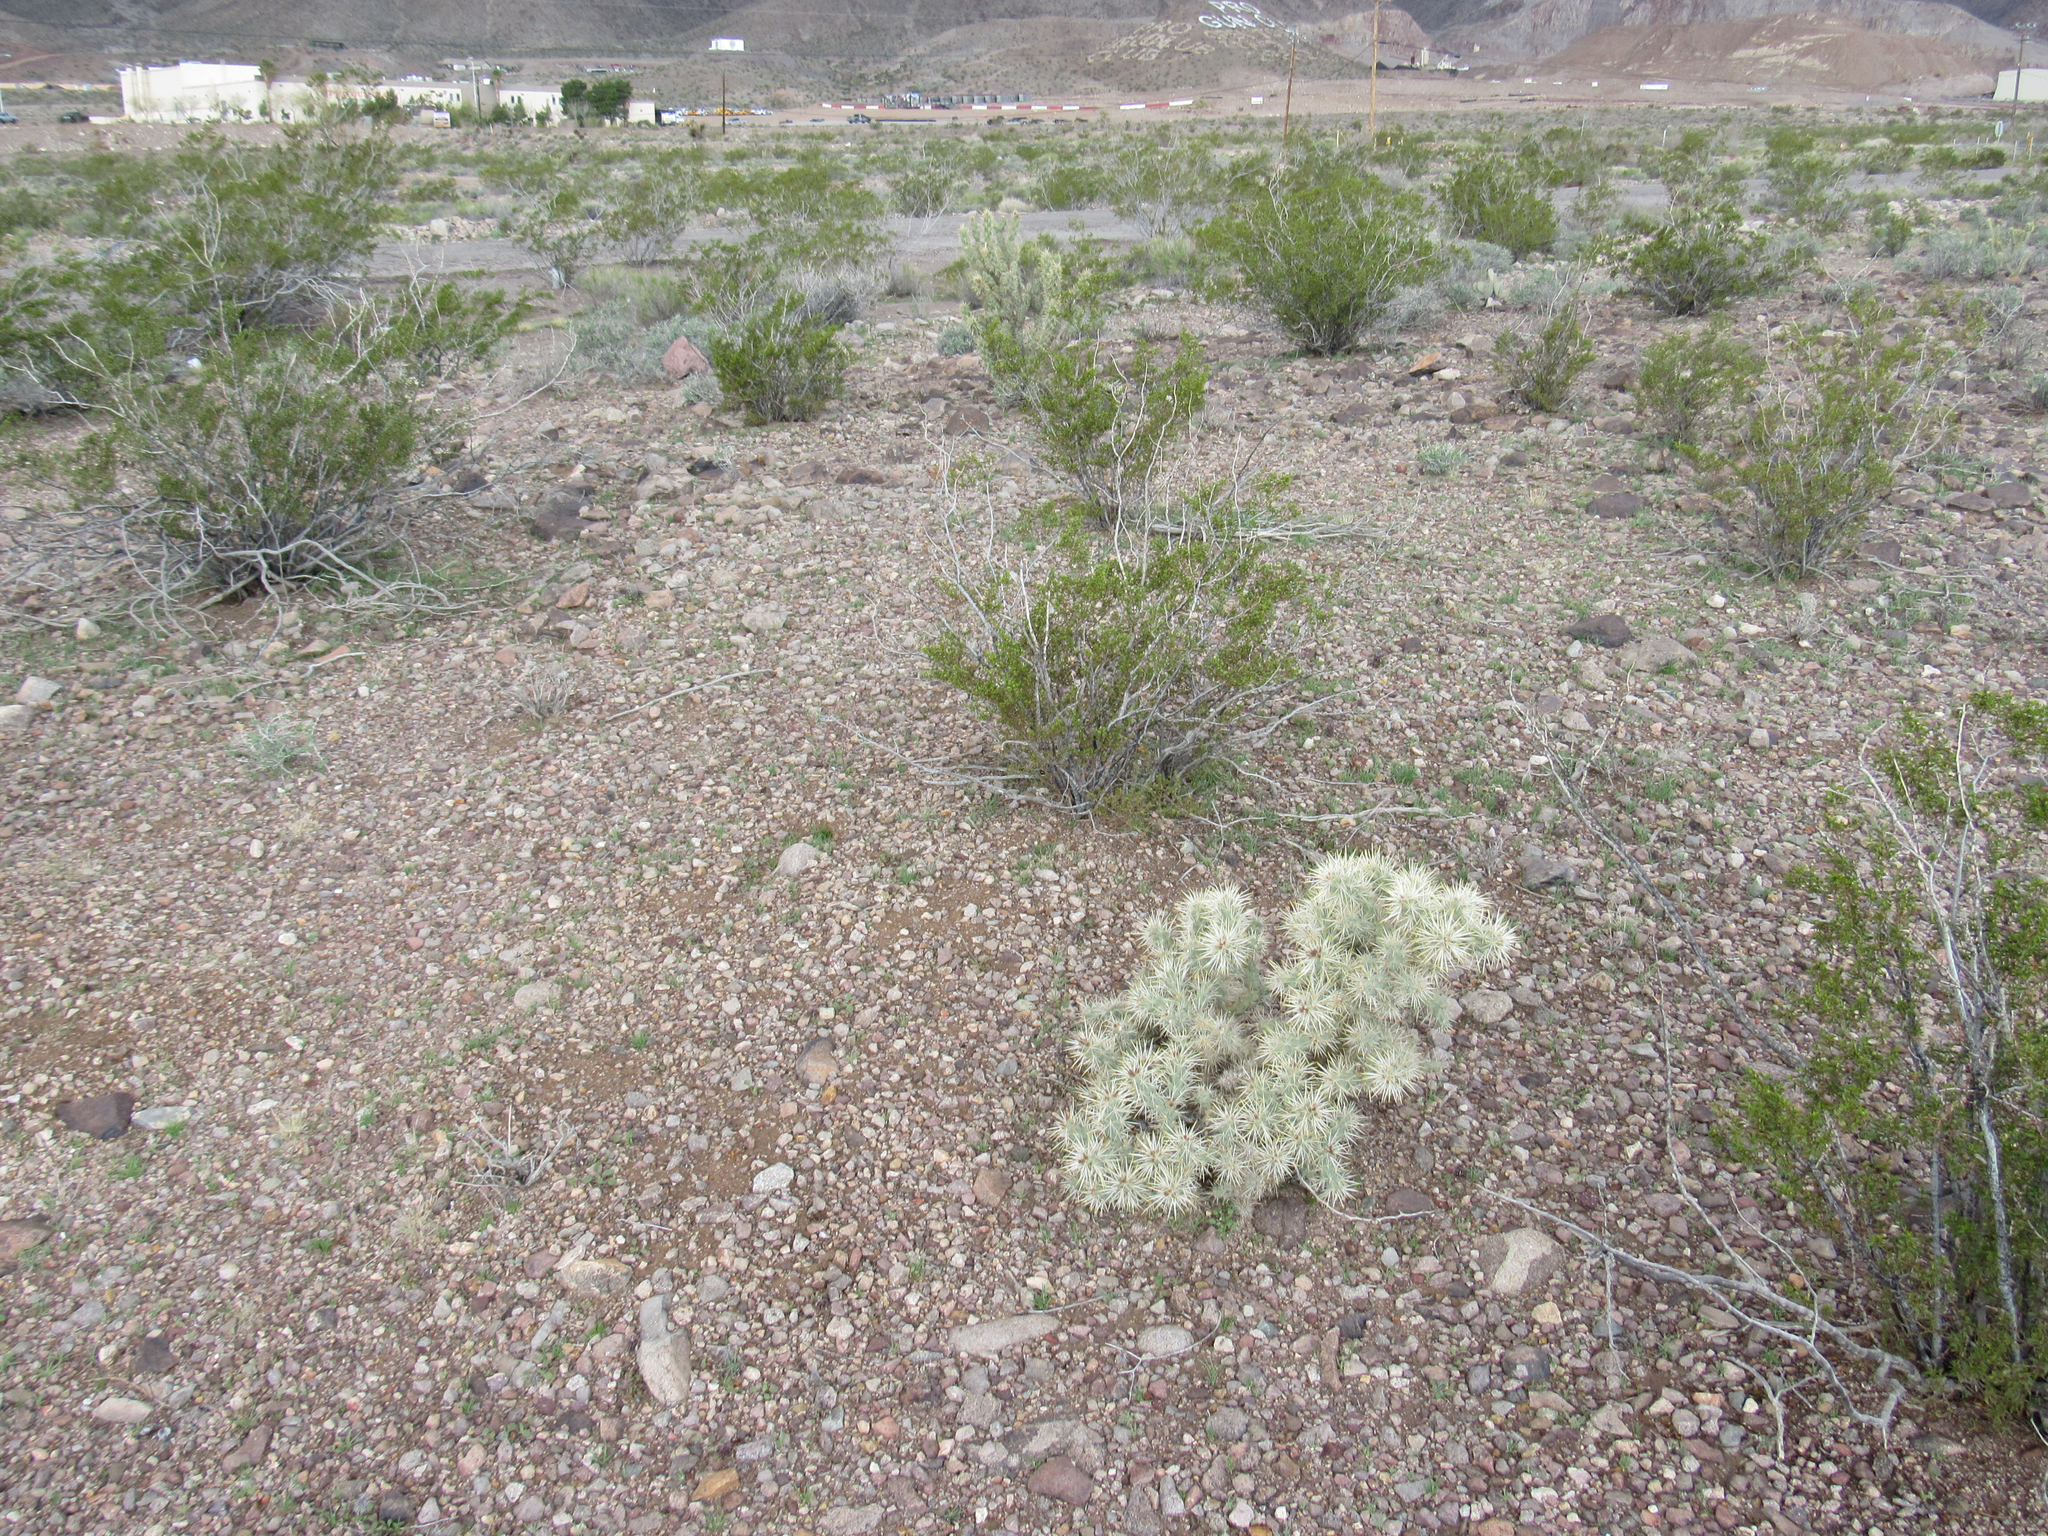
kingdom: Plantae
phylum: Tracheophyta
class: Magnoliopsida
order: Caryophyllales
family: Cactaceae
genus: Cylindropuntia
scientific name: Cylindropuntia echinocarpa
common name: Ground cholla
